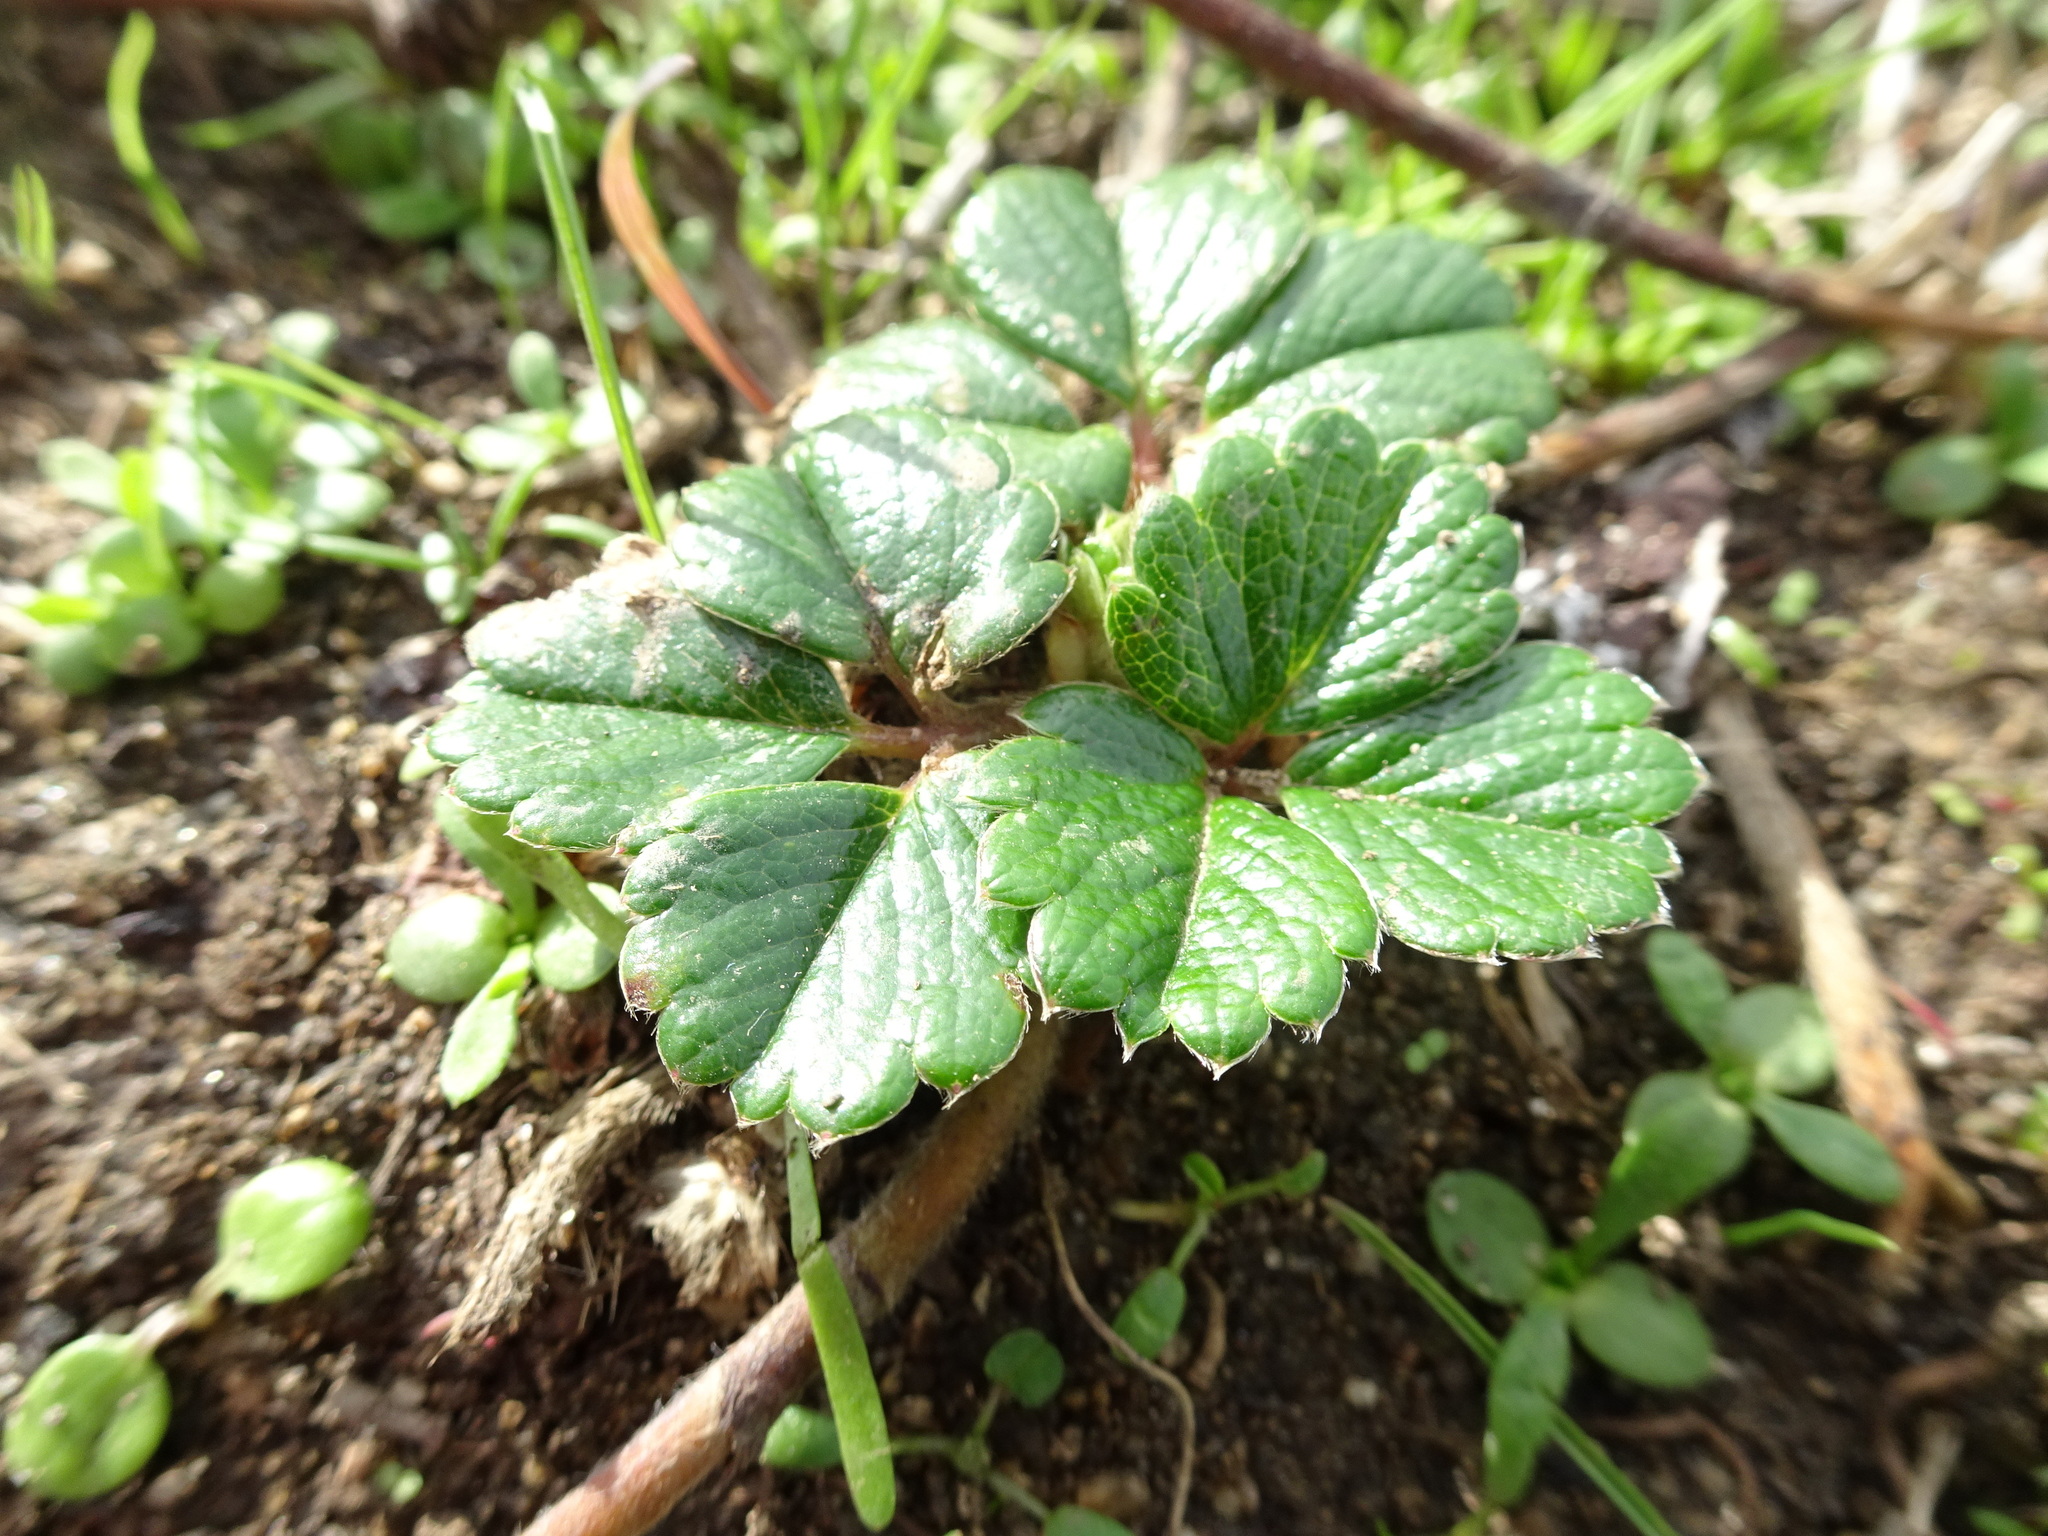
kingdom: Plantae
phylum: Tracheophyta
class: Magnoliopsida
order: Rosales
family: Rosaceae
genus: Fragaria
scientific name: Fragaria chiloensis
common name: Beach strawberry
